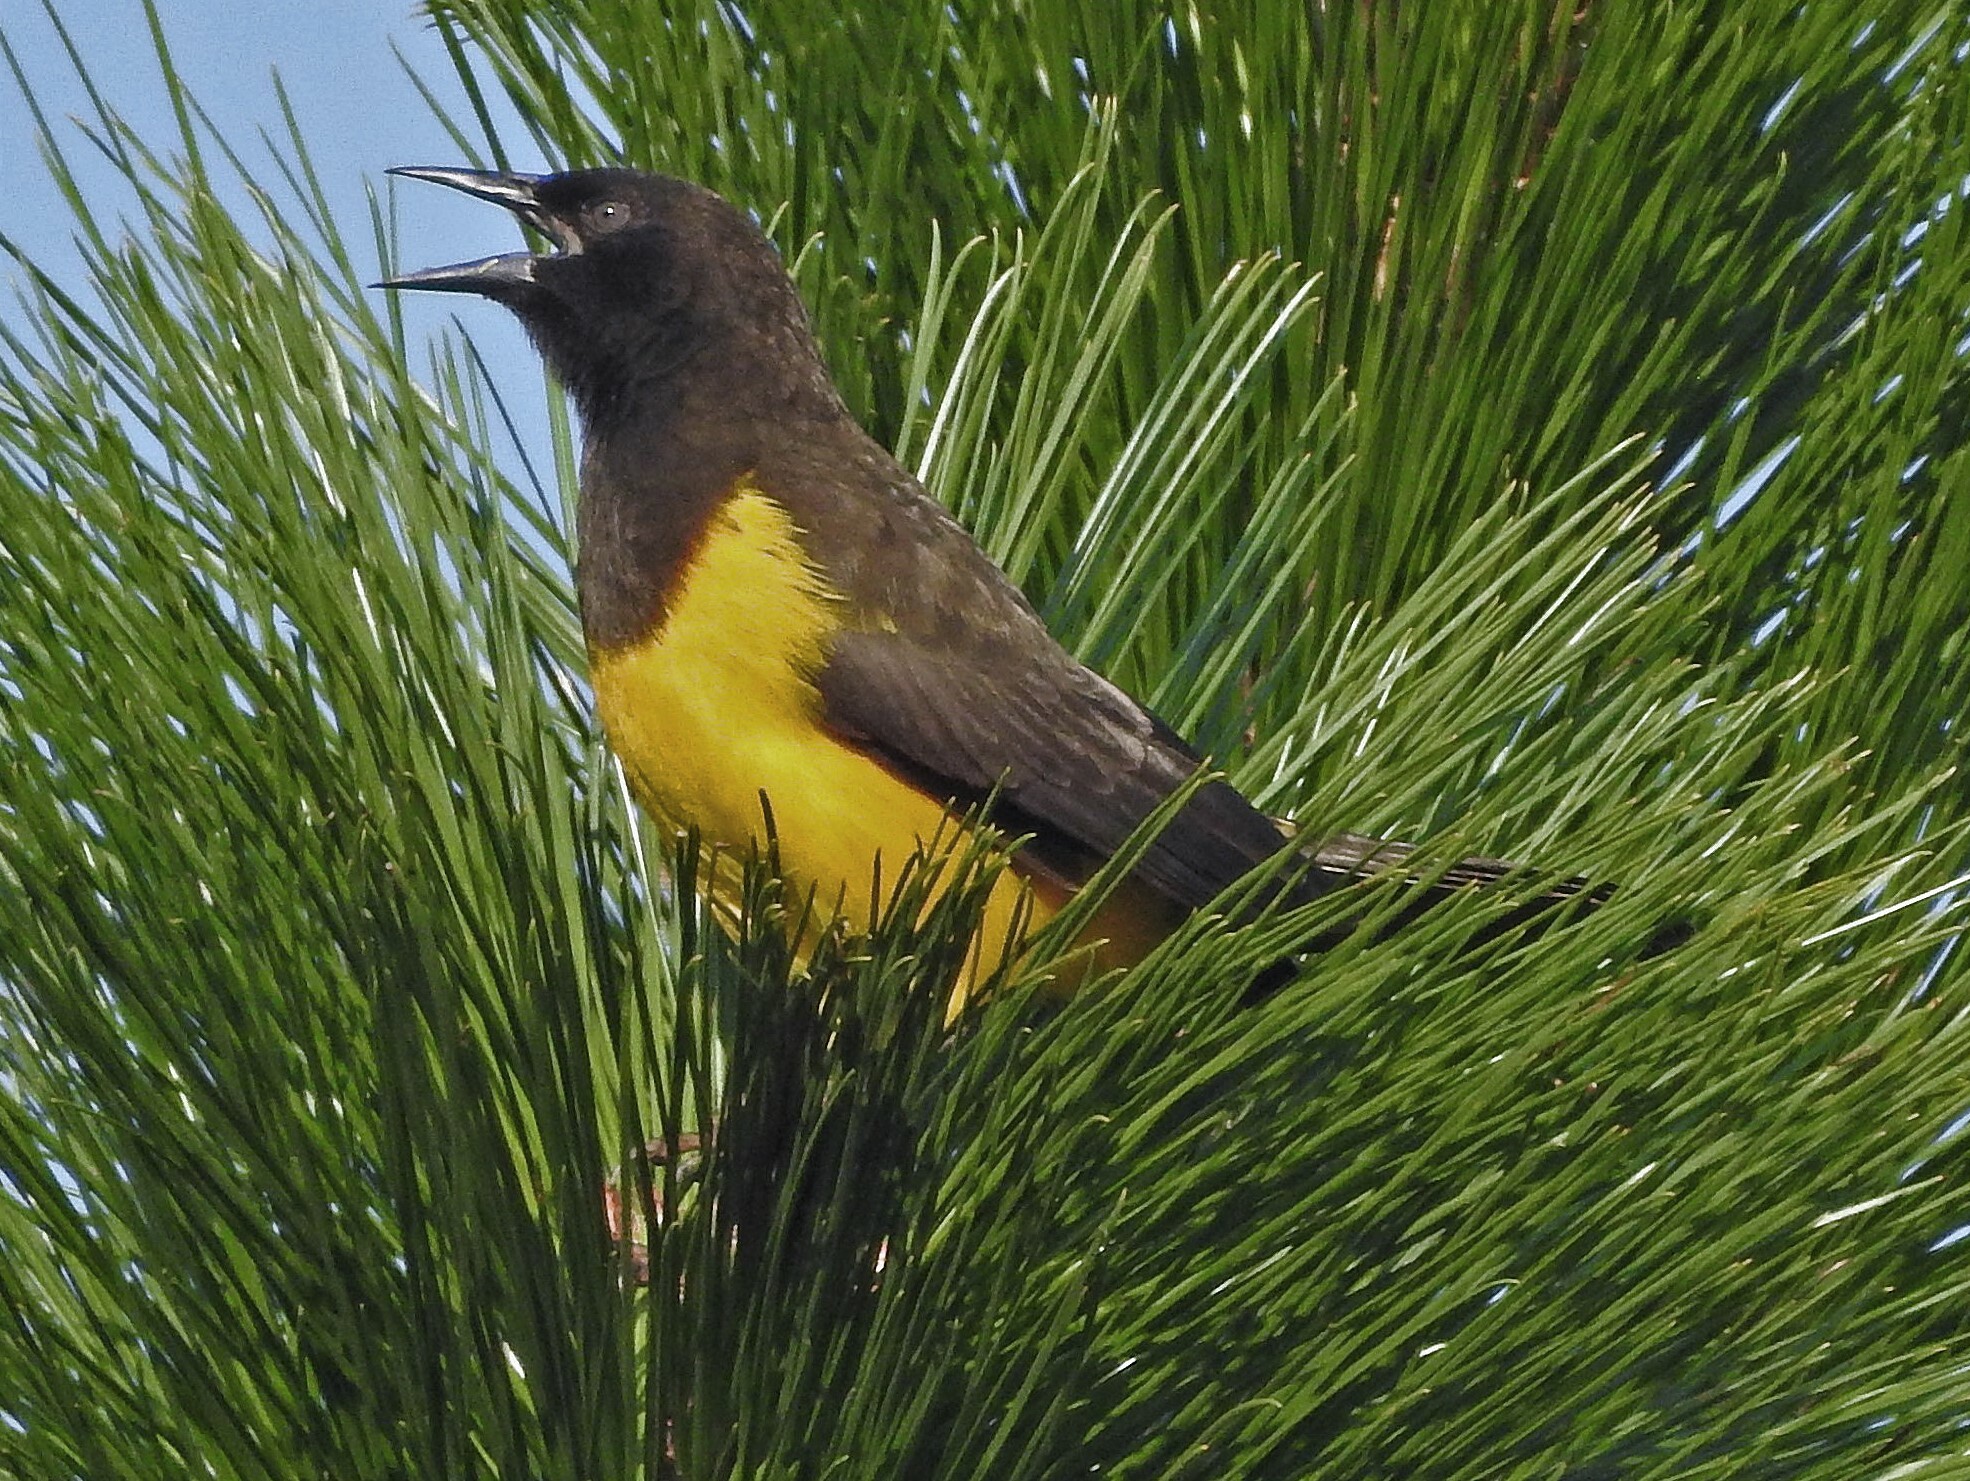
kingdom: Animalia
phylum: Chordata
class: Aves
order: Passeriformes
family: Icteridae
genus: Pseudoleistes
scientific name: Pseudoleistes guirahuro
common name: Yellow-rumped marshbird
